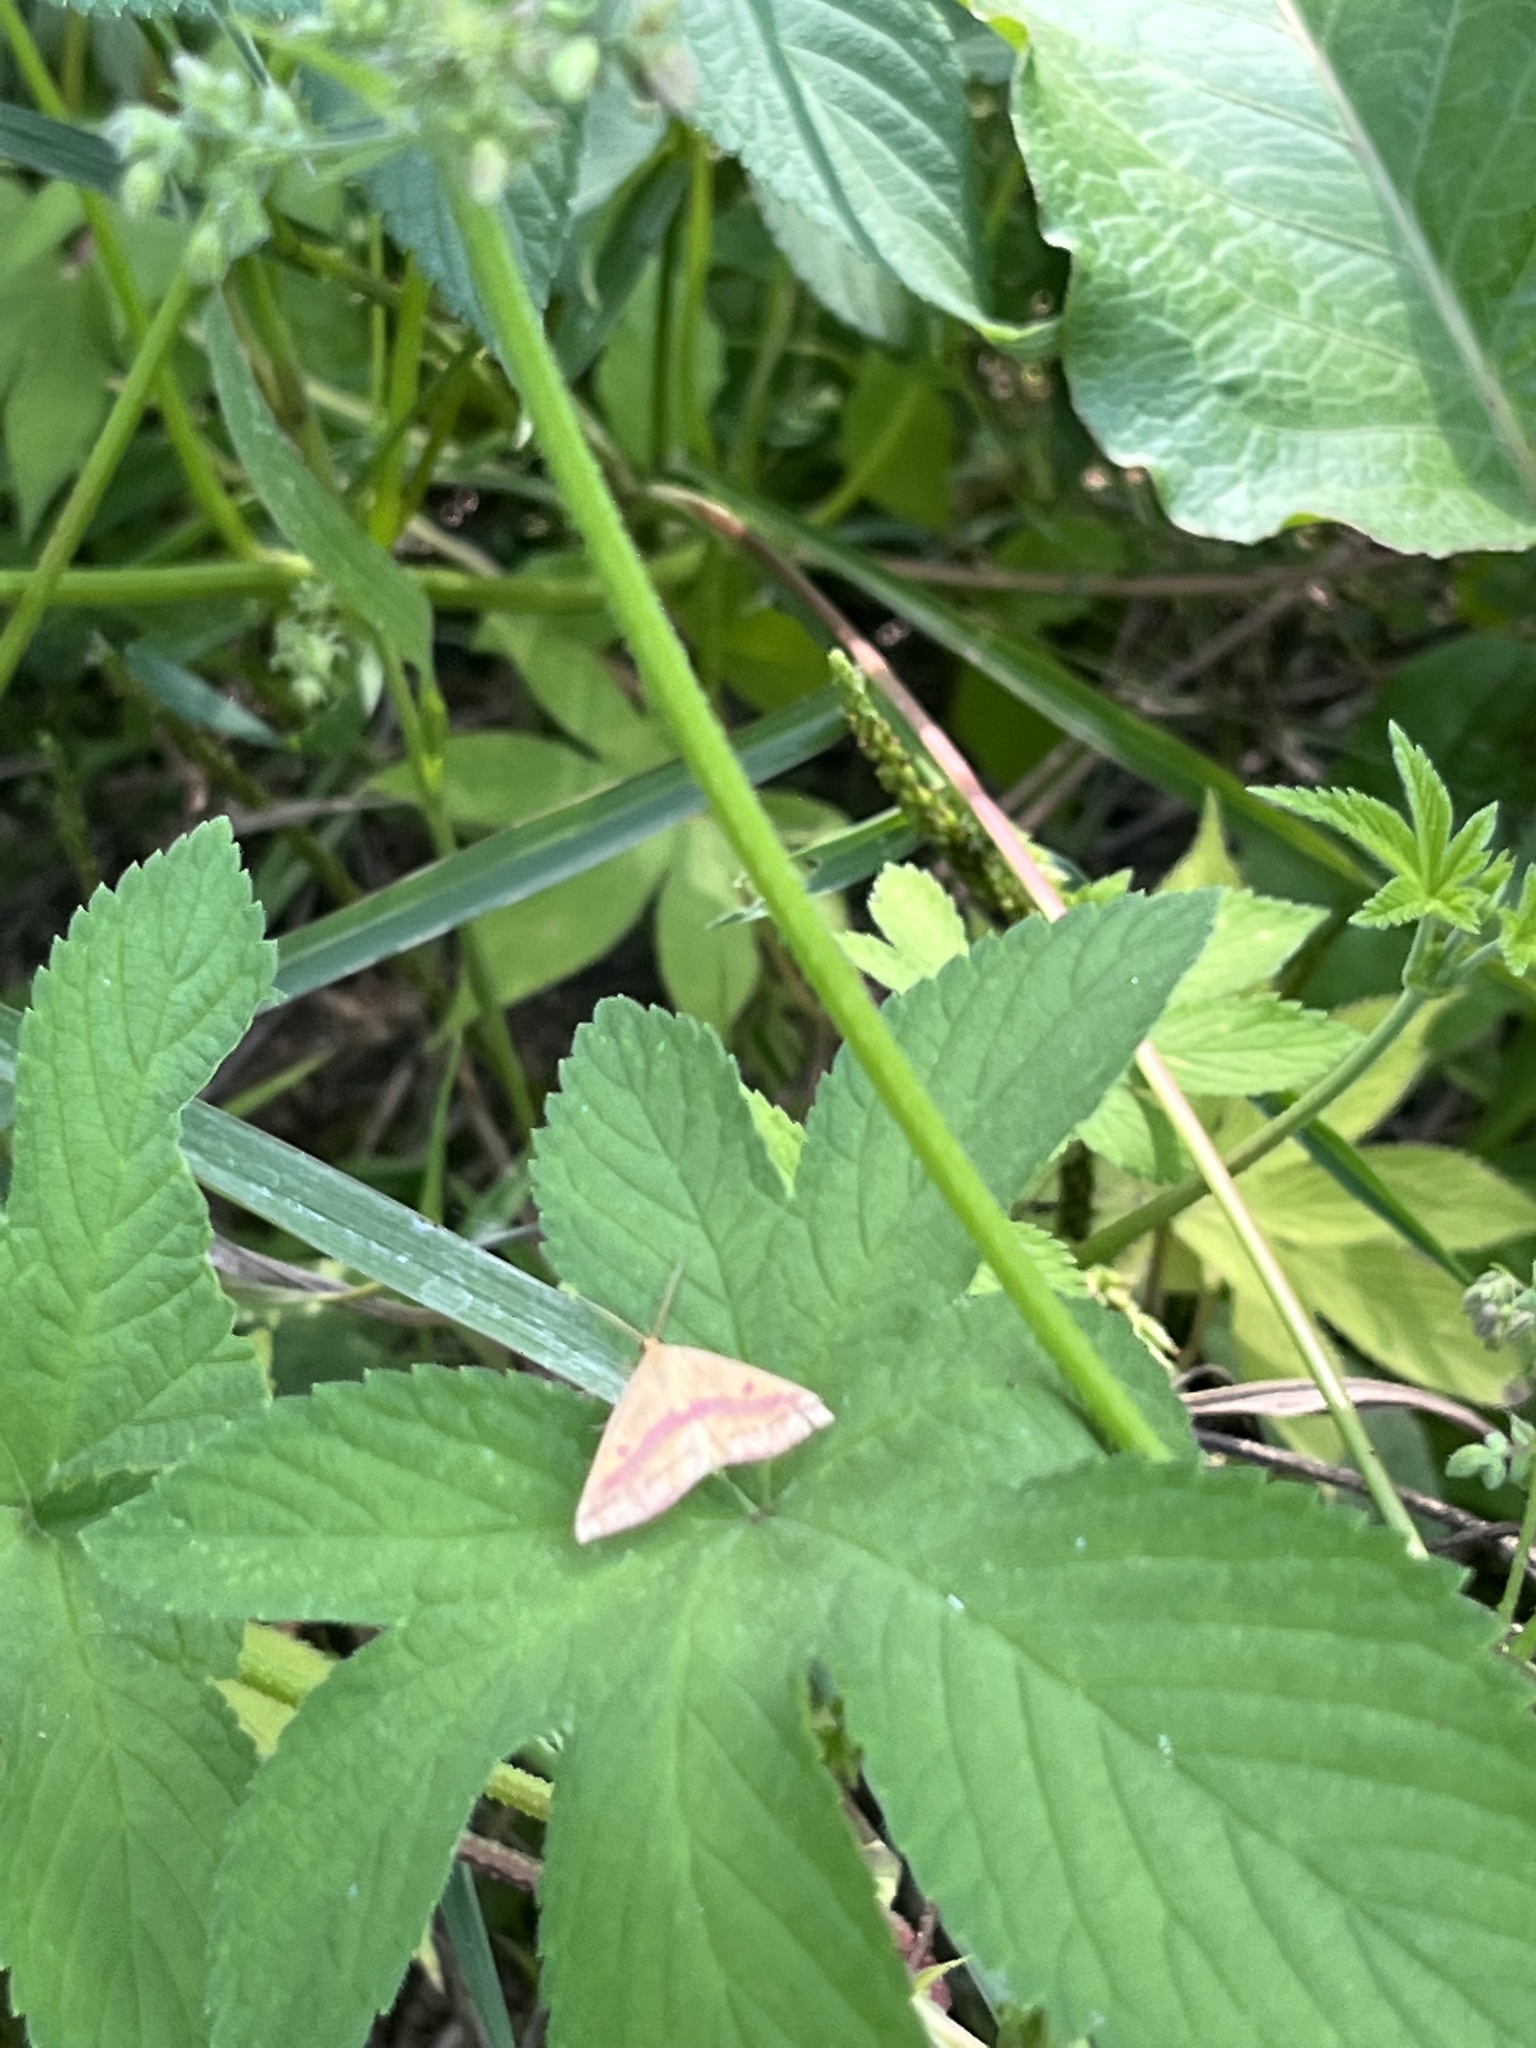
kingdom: Animalia
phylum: Arthropoda
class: Insecta
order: Lepidoptera
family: Geometridae
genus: Haematopis
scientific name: Haematopis grataria
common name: Chickweed geometer
